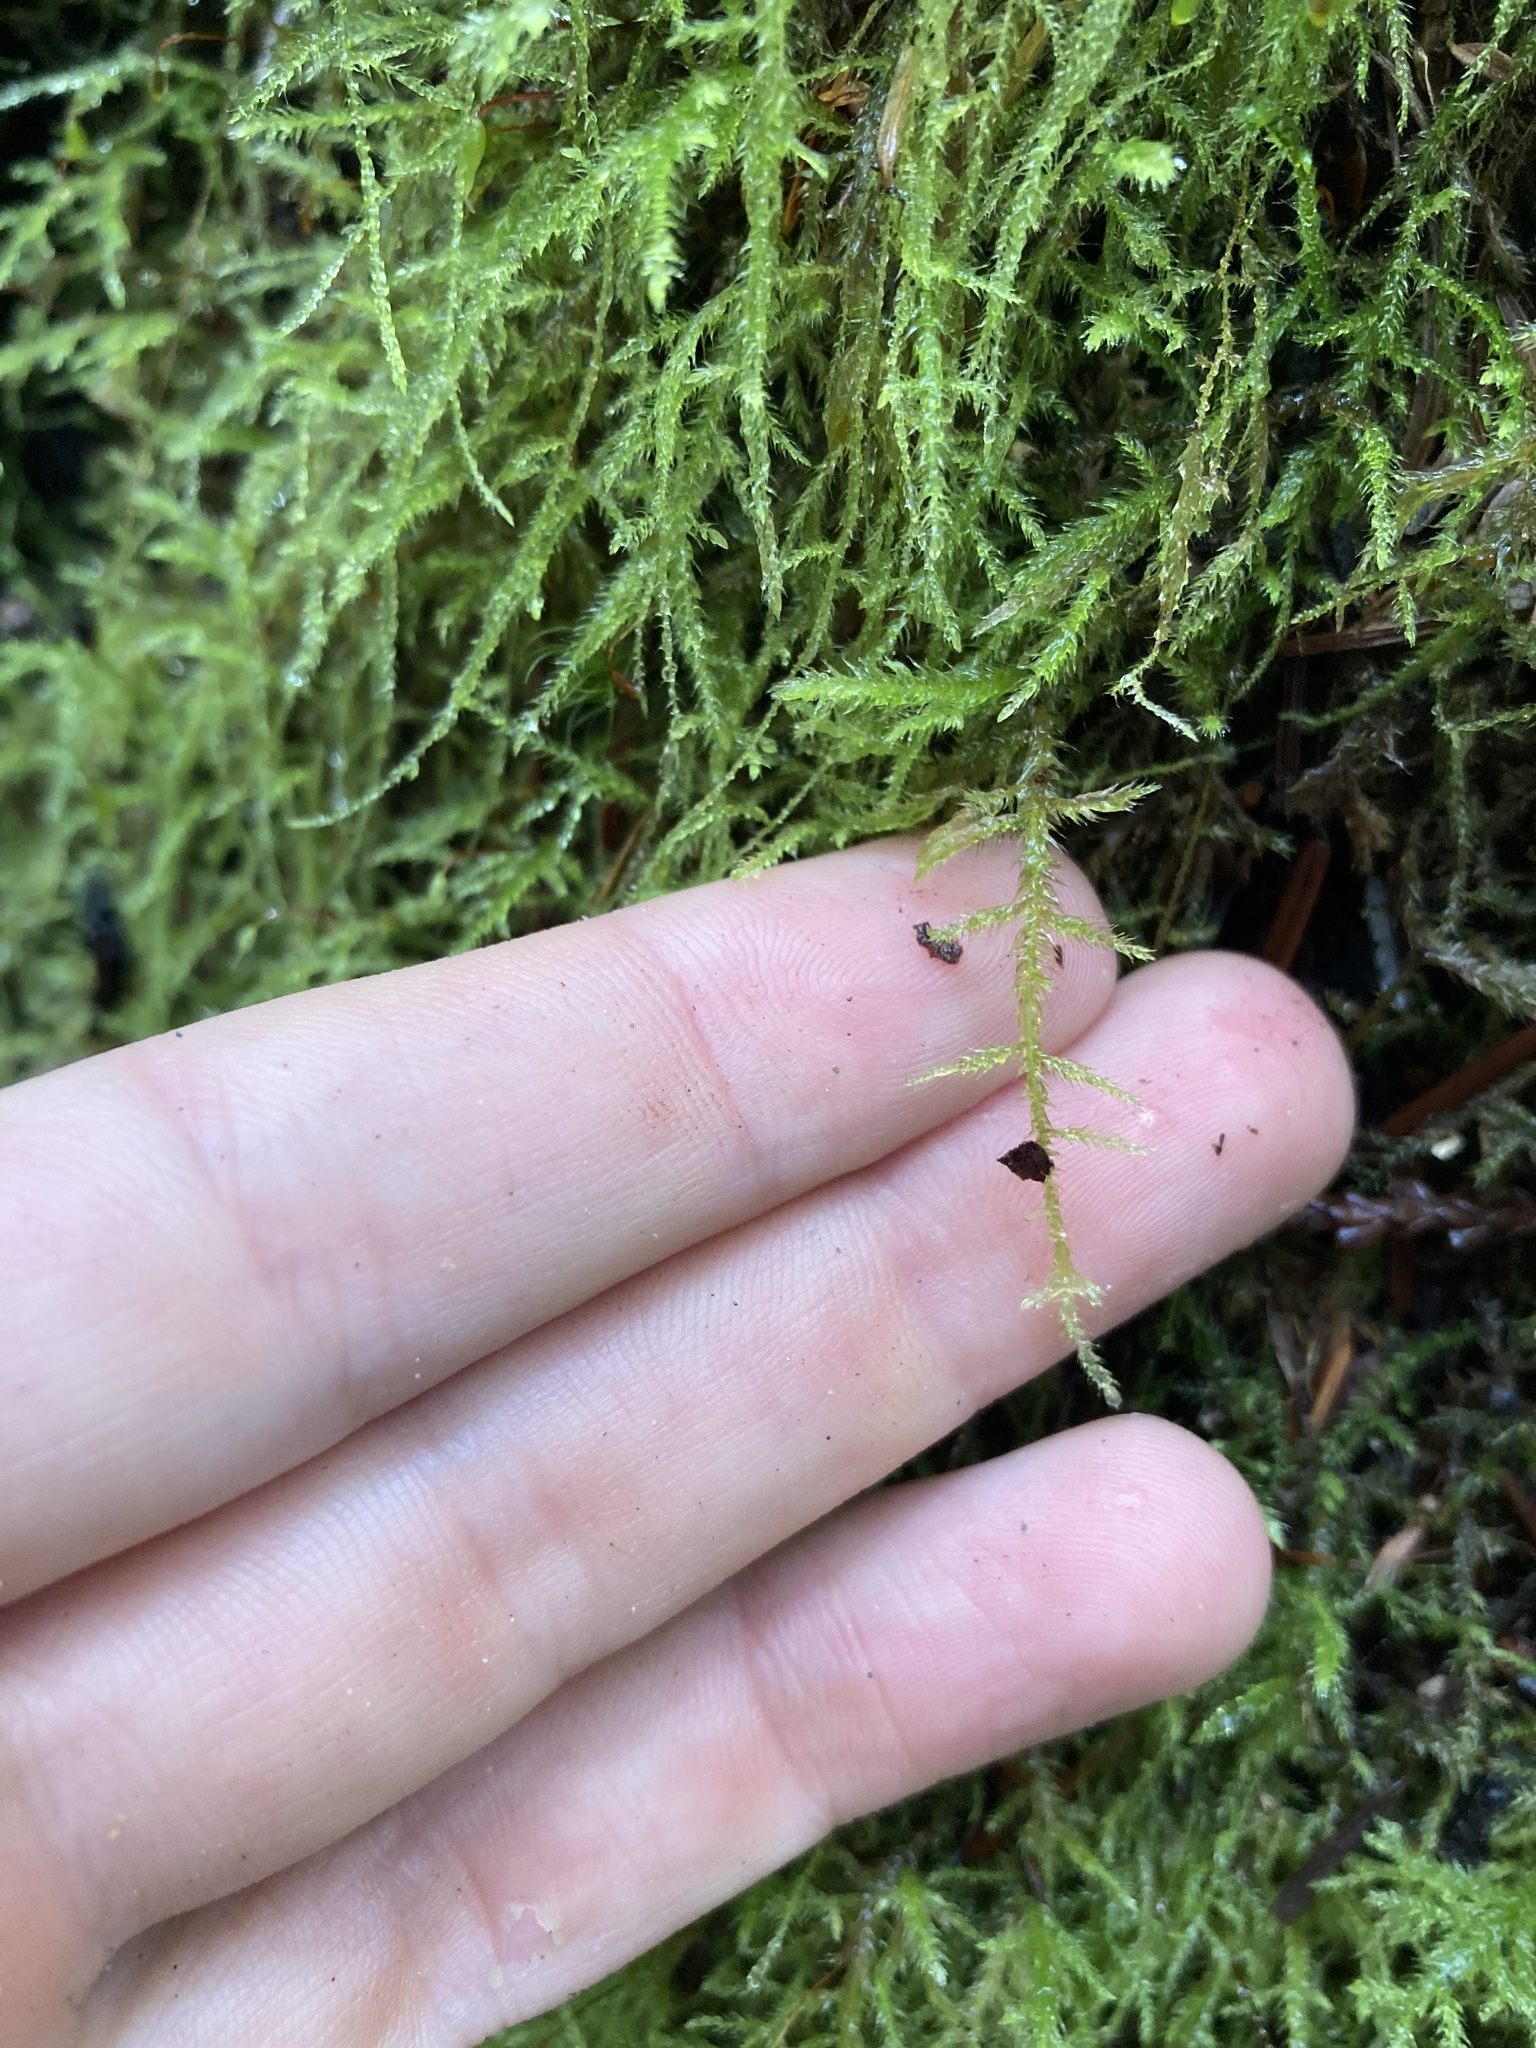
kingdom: Plantae
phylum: Bryophyta
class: Bryopsida
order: Hypnales
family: Lembophyllaceae
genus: Pseudisothecium
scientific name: Pseudisothecium stoloniferum
